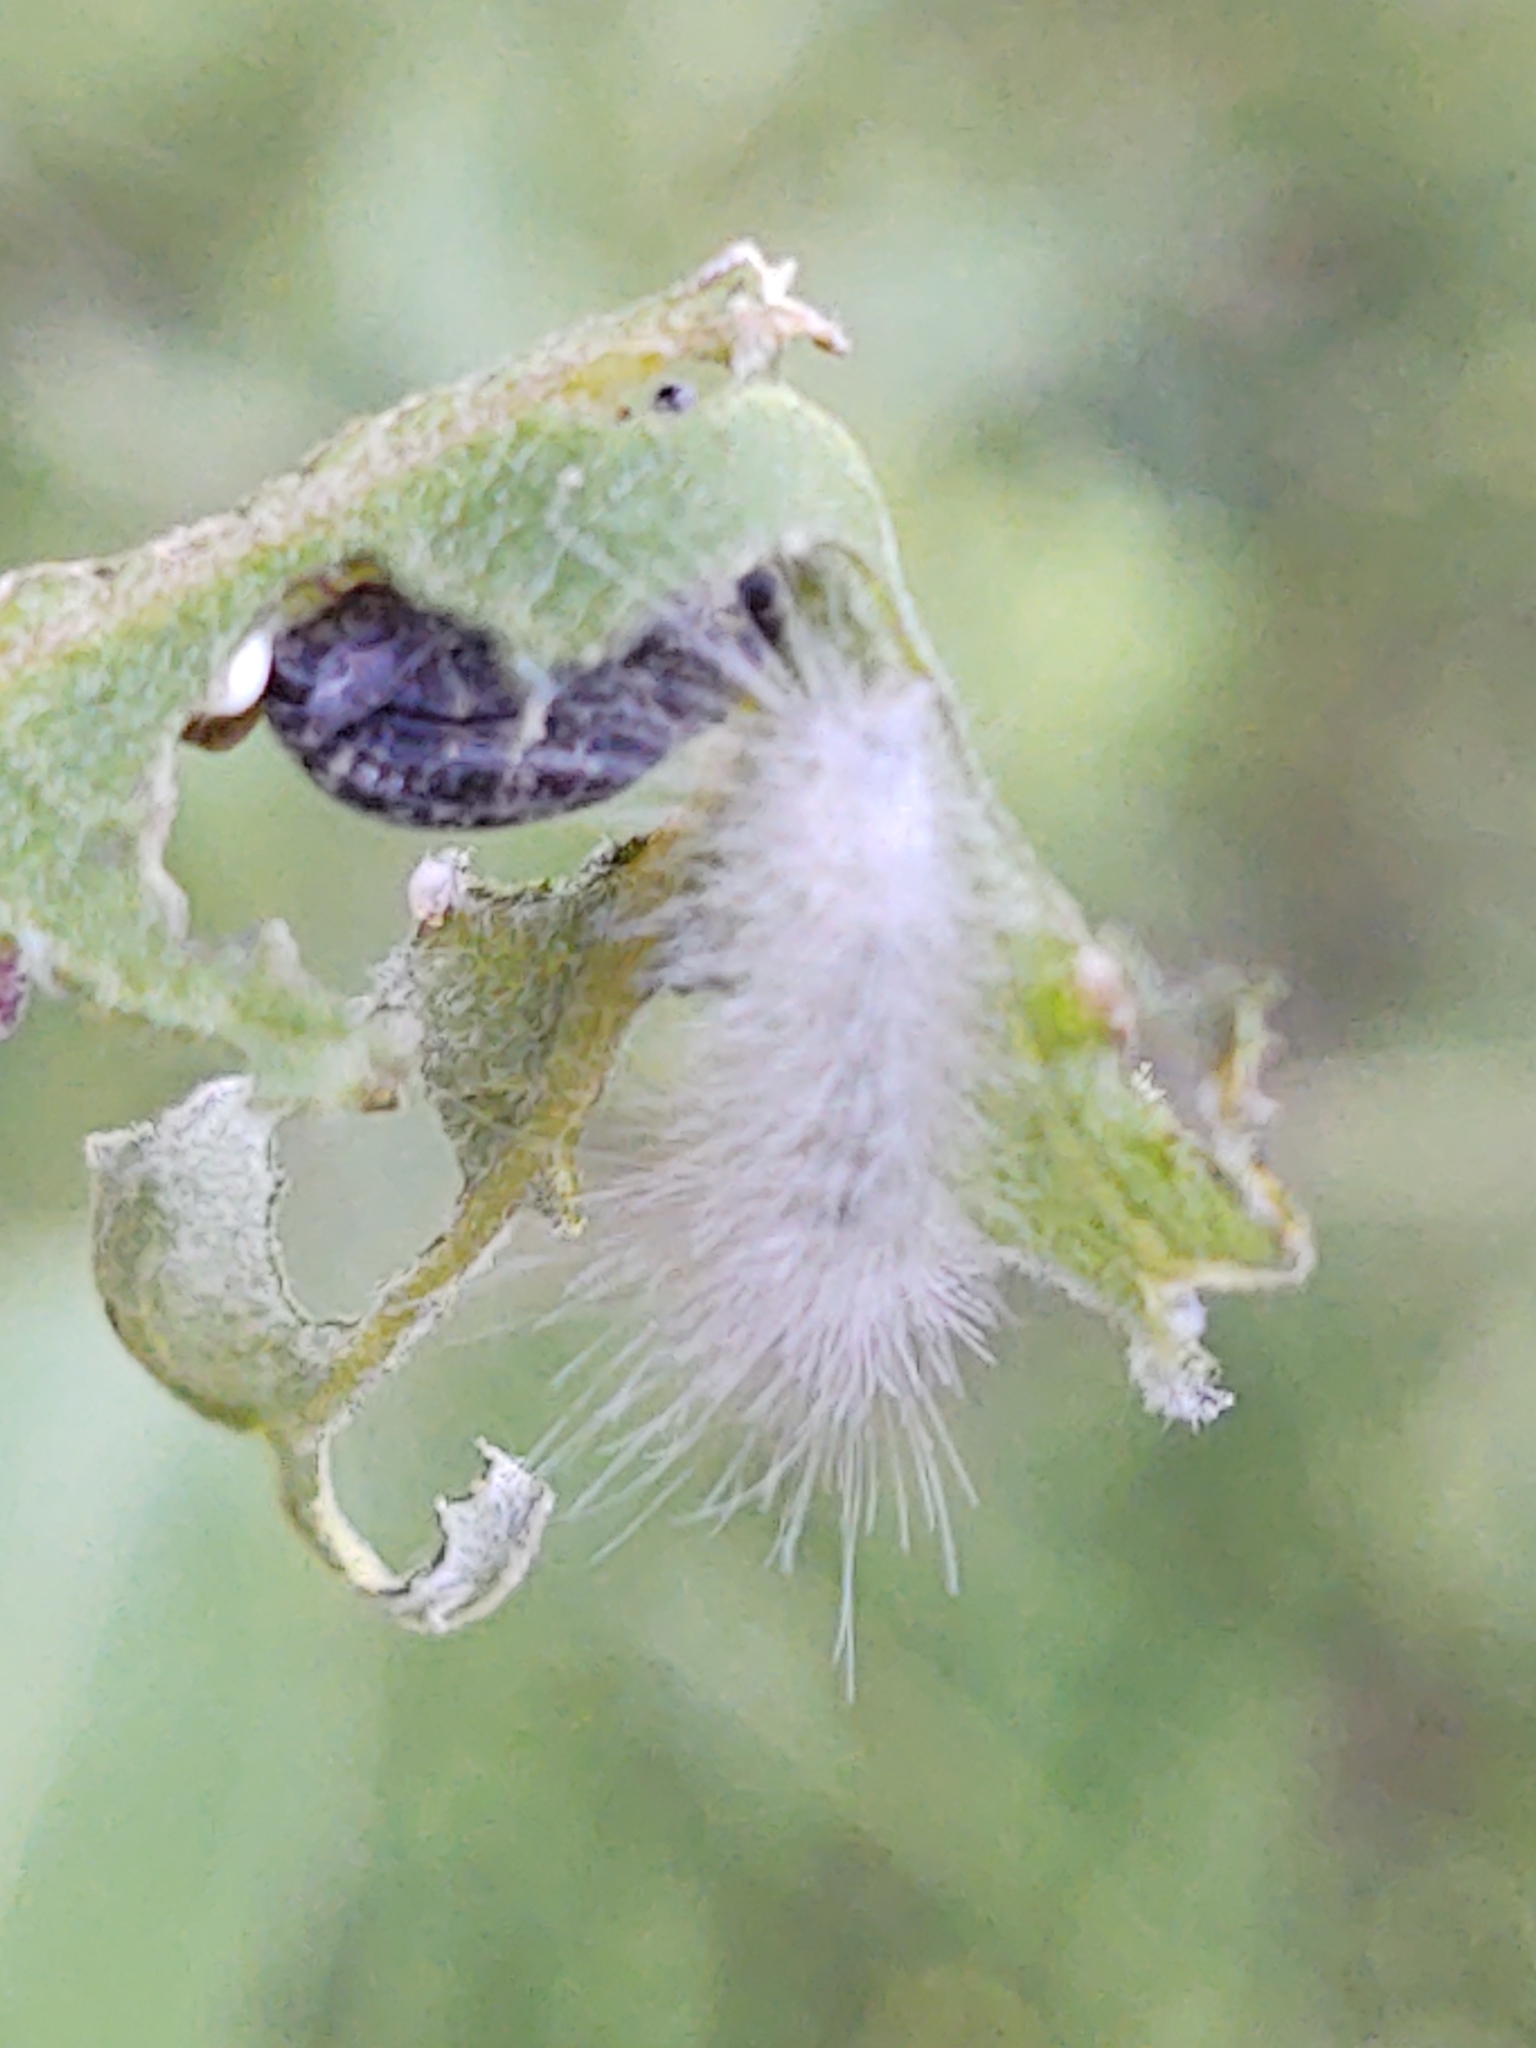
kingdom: Animalia
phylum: Arthropoda
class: Insecta
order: Lepidoptera
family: Erebidae
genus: Cycnia
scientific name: Cycnia tenera
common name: Delicate cycnia moth
